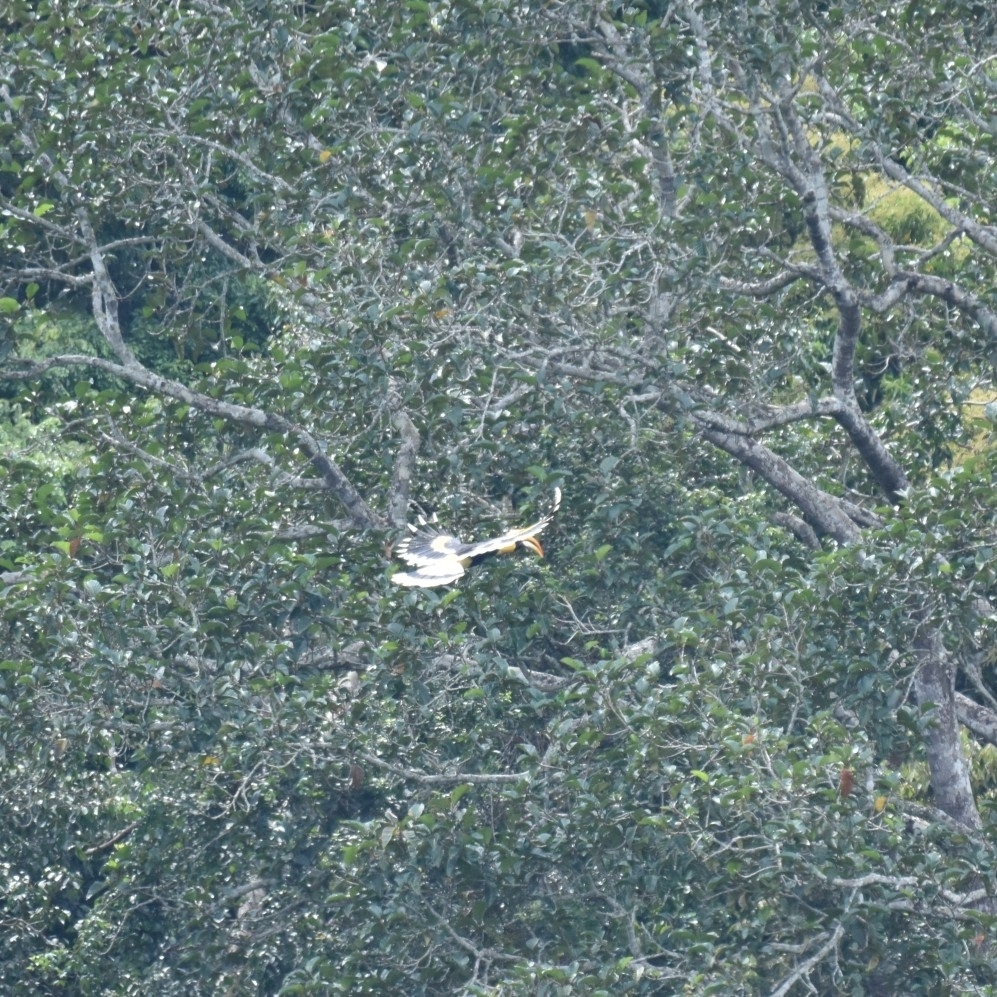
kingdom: Animalia
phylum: Chordata
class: Aves
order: Bucerotiformes
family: Bucerotidae
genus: Buceros
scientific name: Buceros bicornis
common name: Great hornbill
